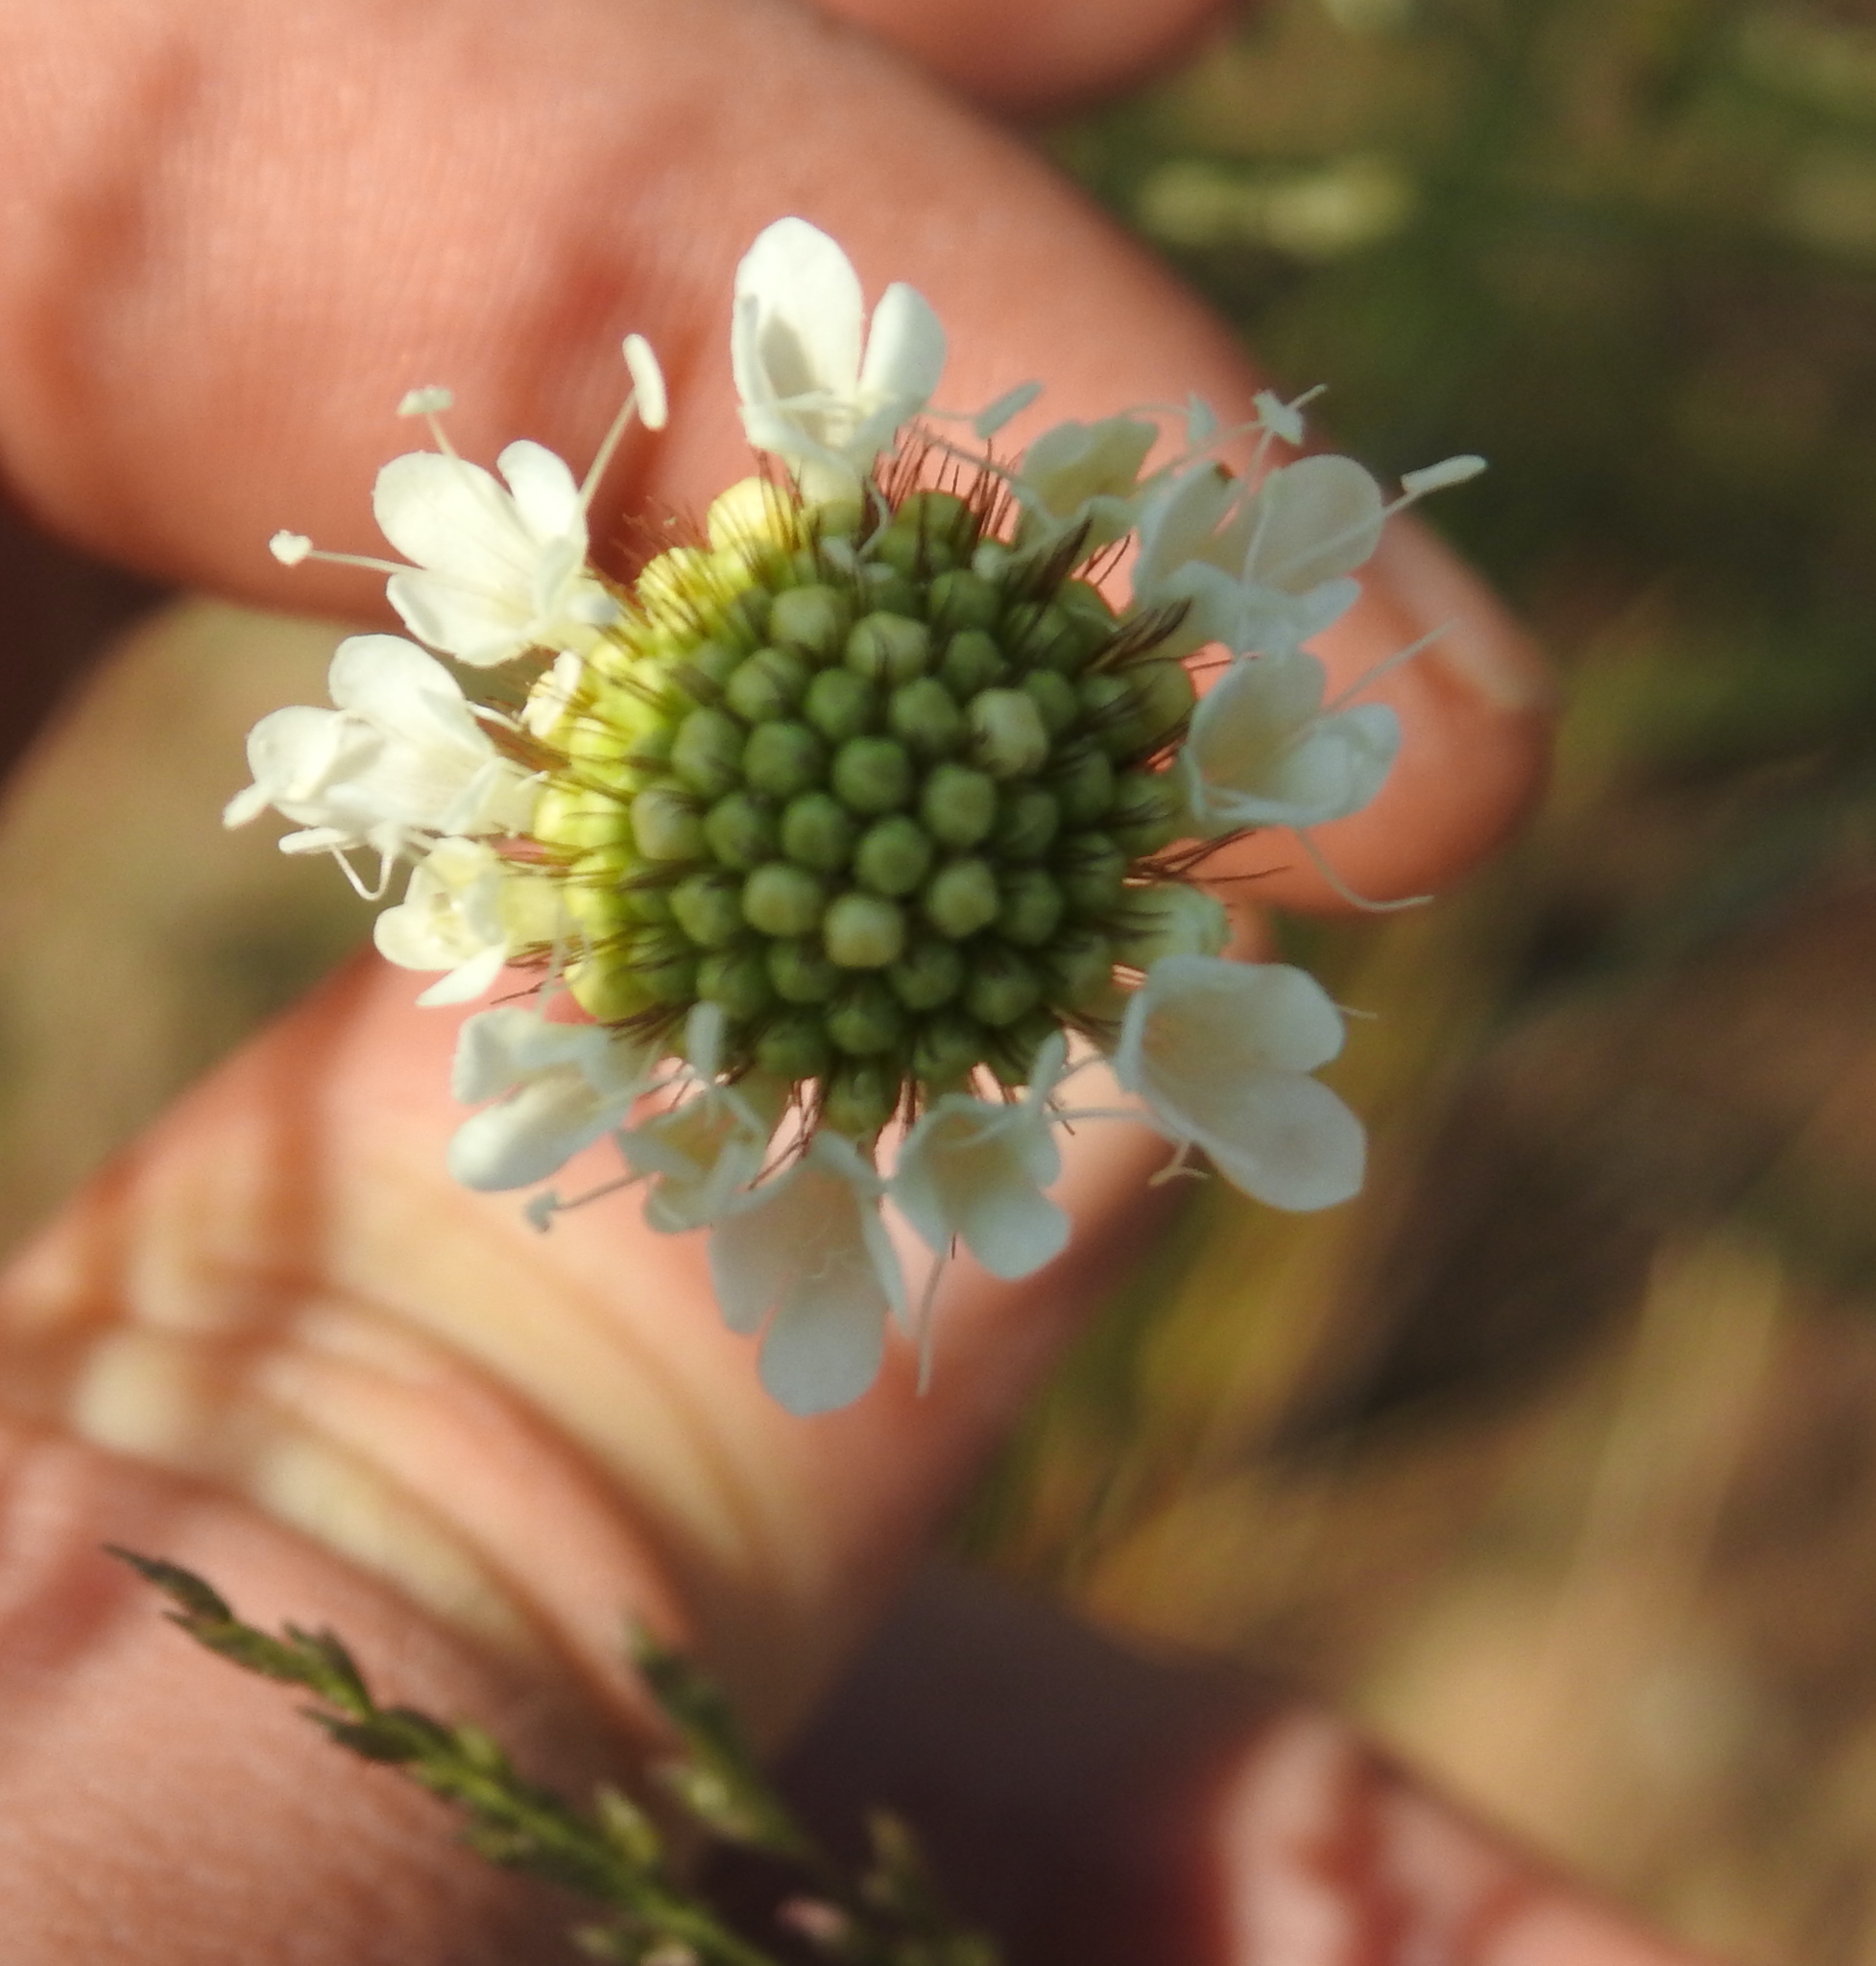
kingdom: Plantae
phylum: Tracheophyta
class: Magnoliopsida
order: Dipsacales
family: Caprifoliaceae
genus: Scabiosa
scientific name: Scabiosa columbaria
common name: Small scabious
